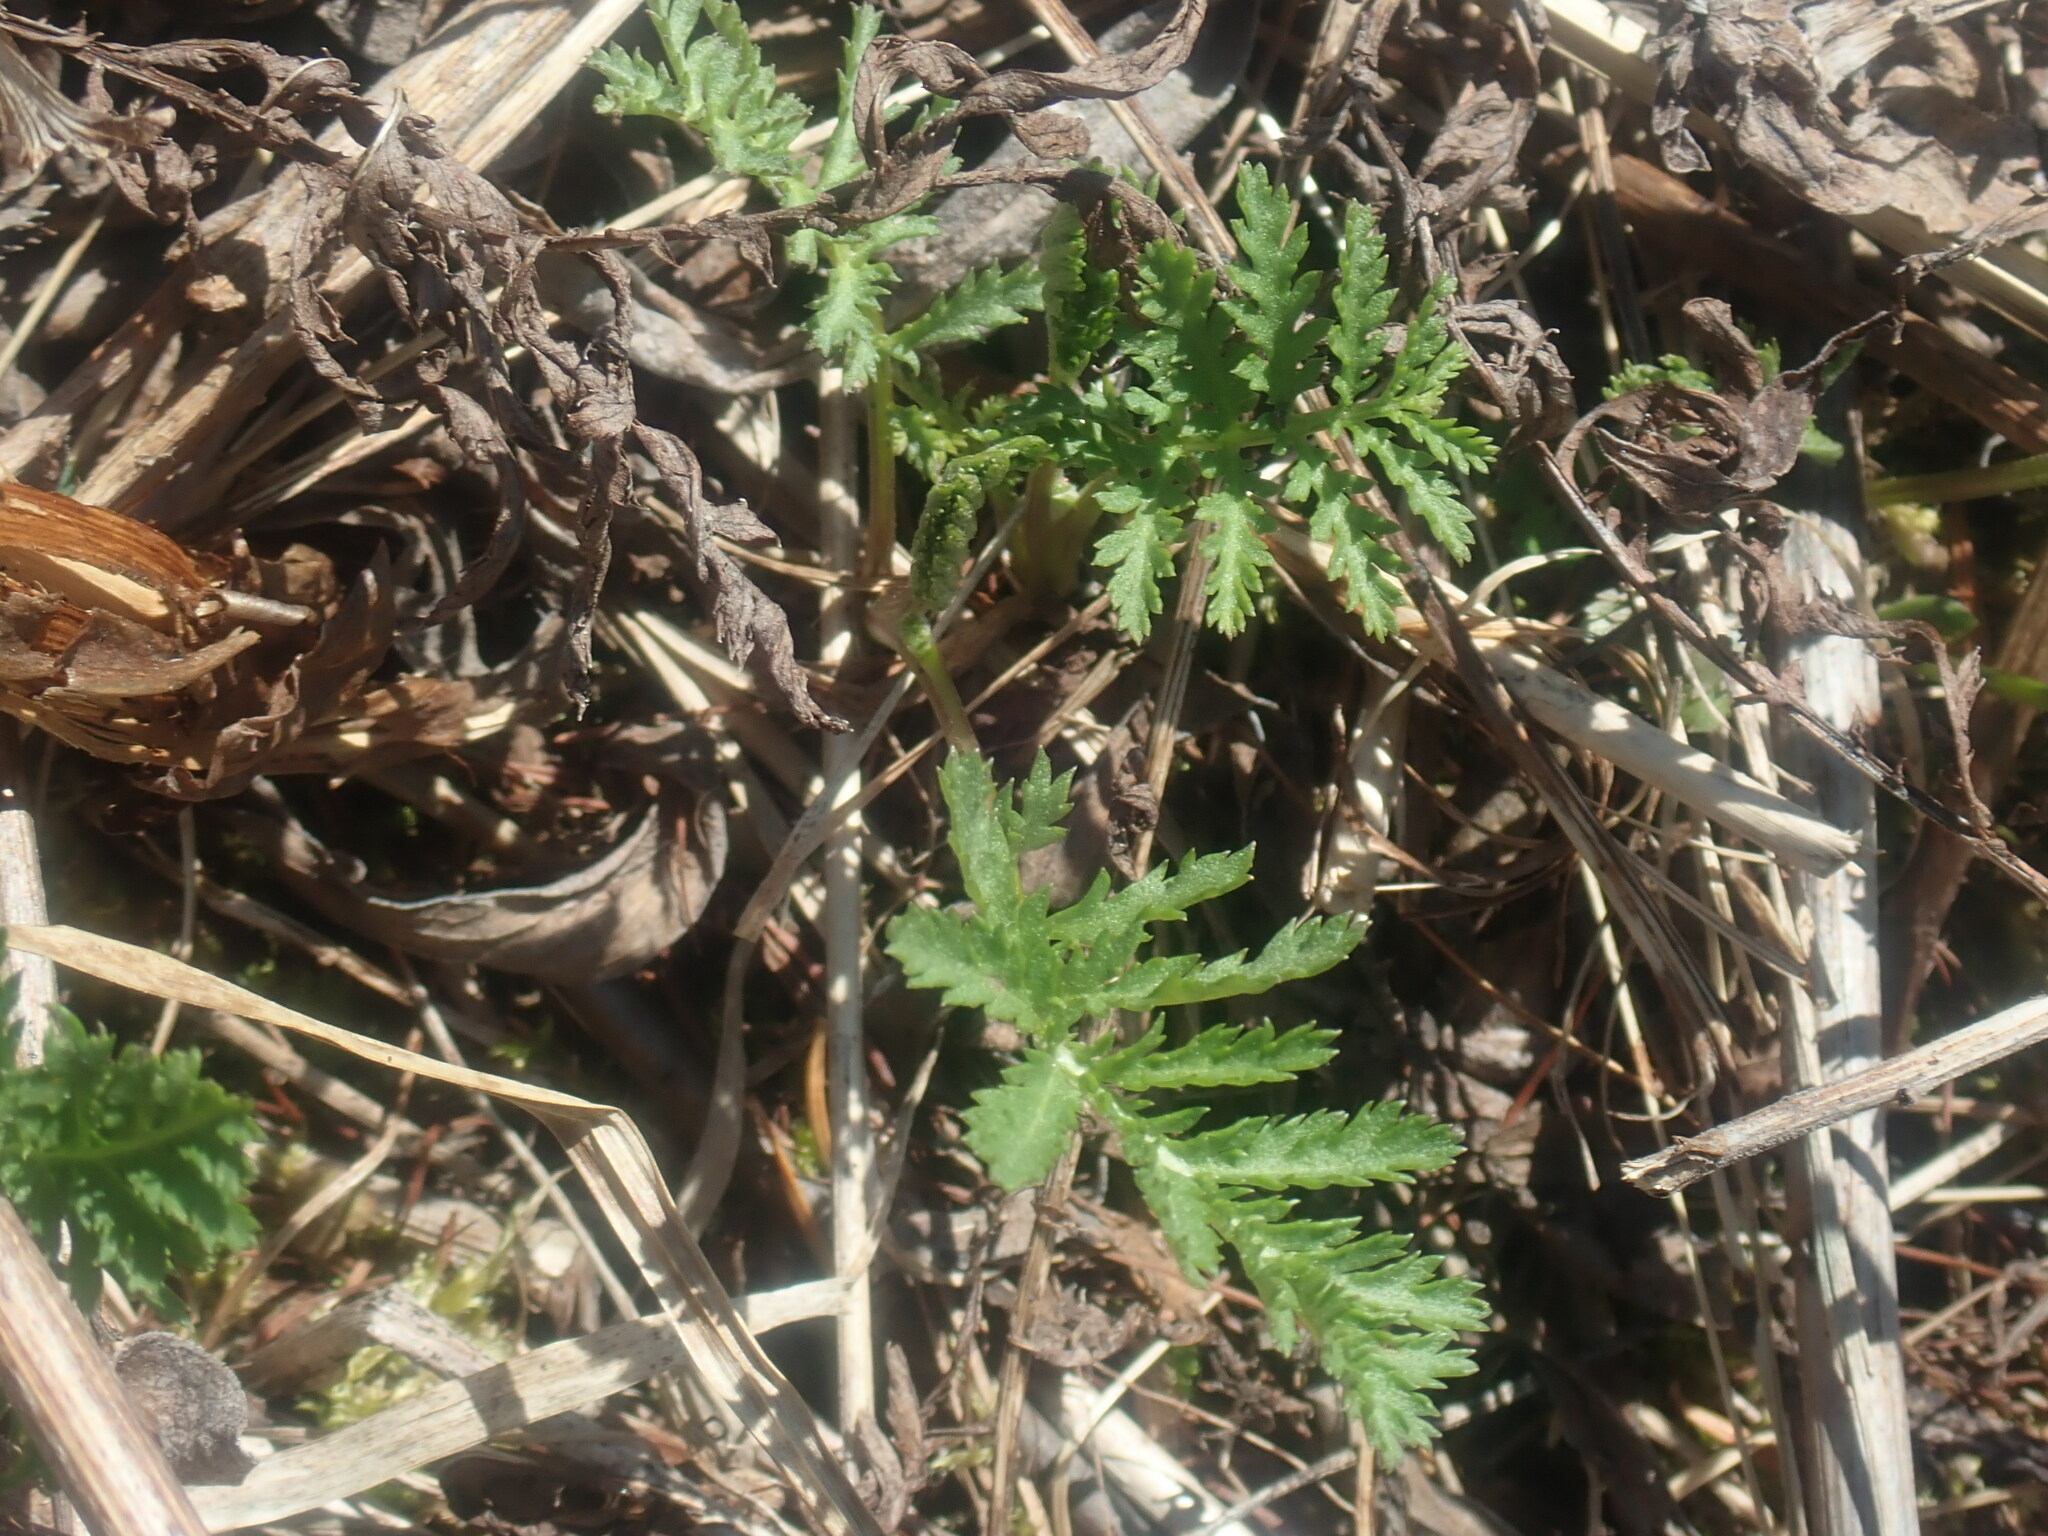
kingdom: Plantae
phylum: Tracheophyta
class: Magnoliopsida
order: Asterales
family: Asteraceae
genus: Tanacetum
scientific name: Tanacetum vulgare
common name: Common tansy
